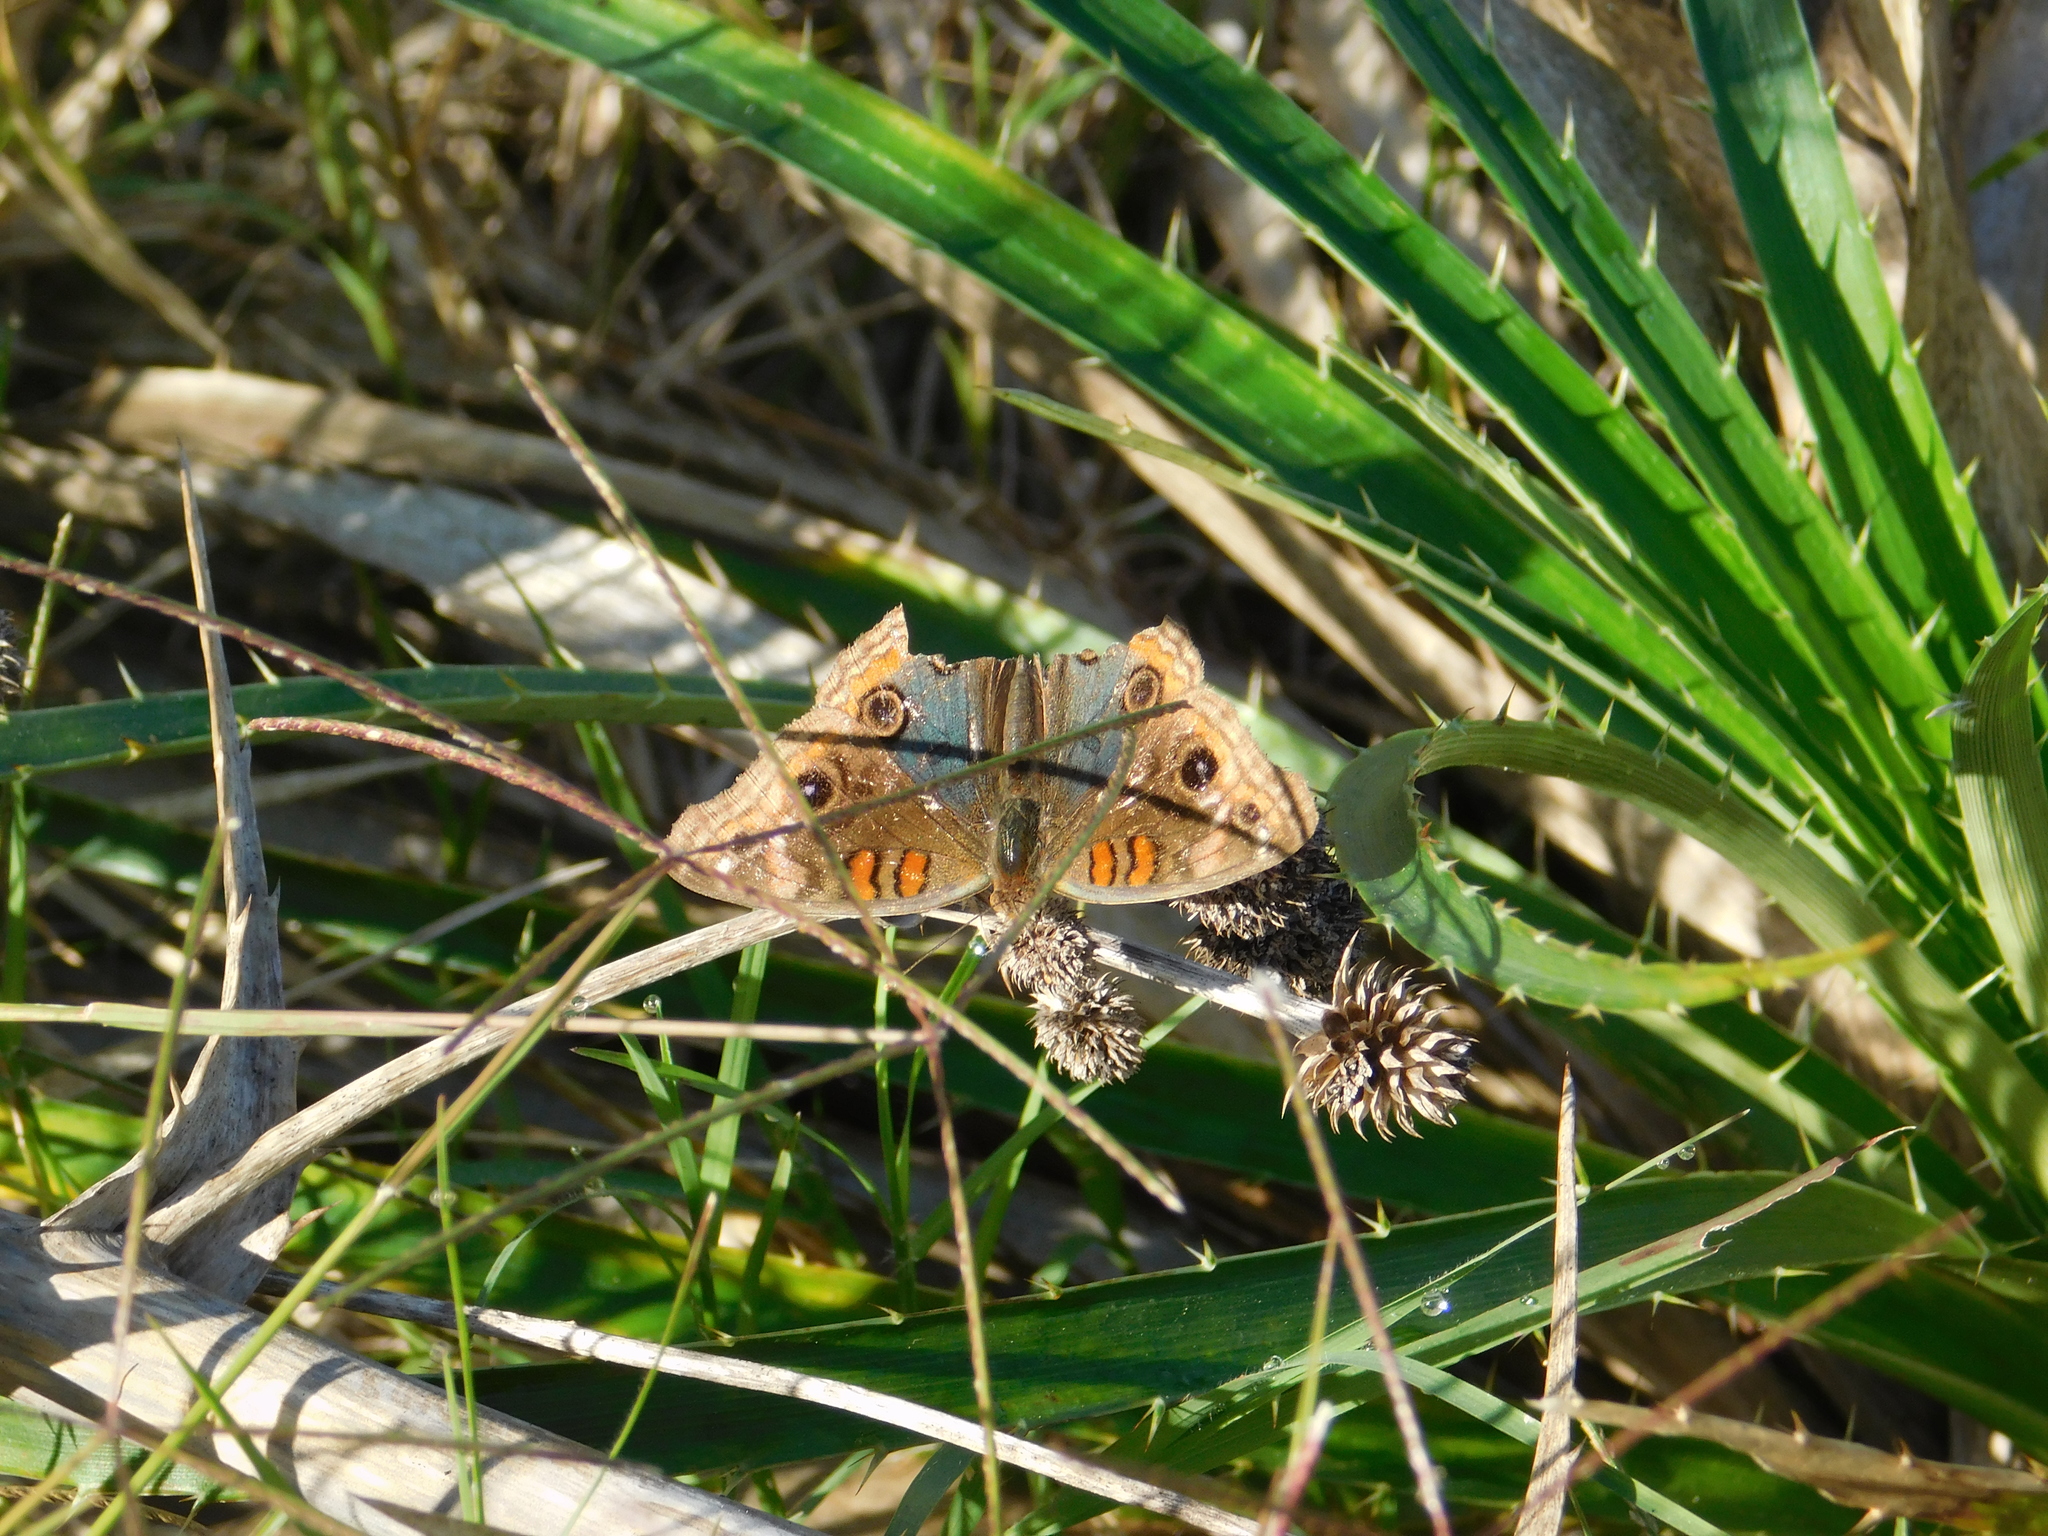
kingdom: Animalia
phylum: Arthropoda
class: Insecta
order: Lepidoptera
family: Nymphalidae
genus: Junonia
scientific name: Junonia lavinia
